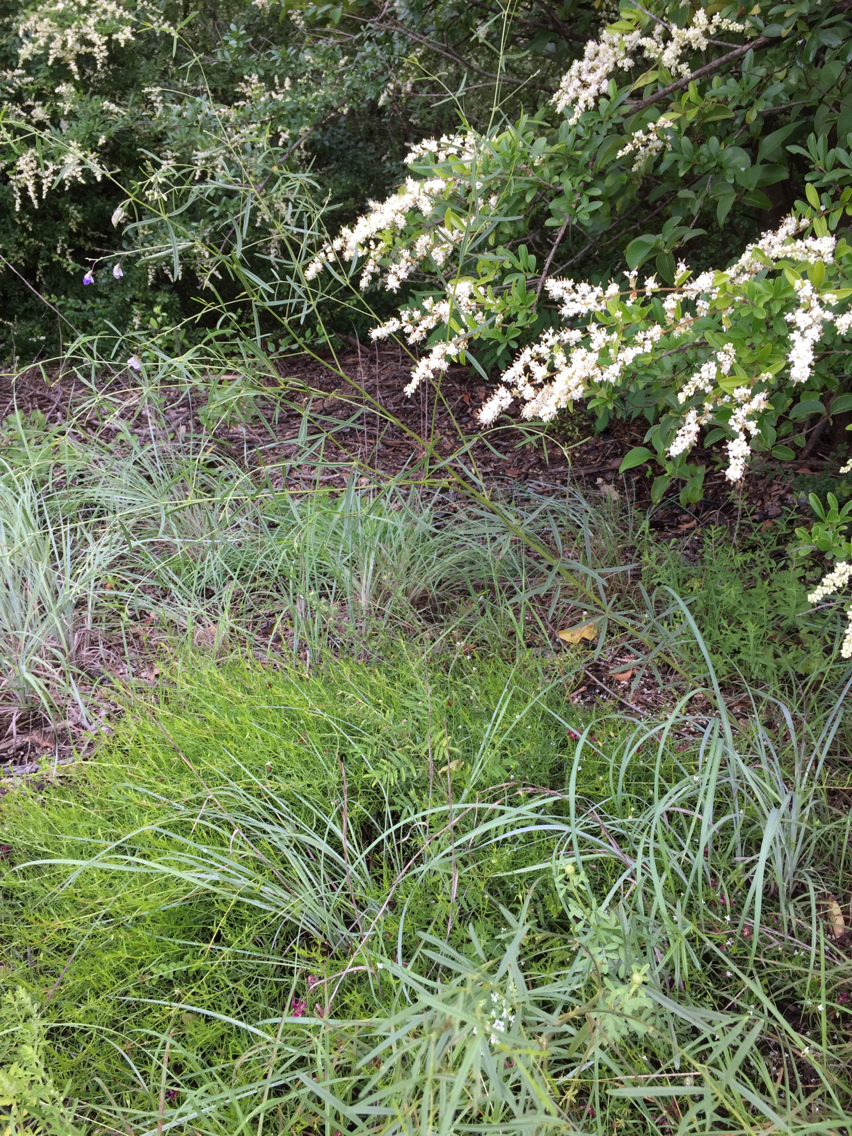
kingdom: Plantae
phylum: Tracheophyta
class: Magnoliopsida
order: Fabales
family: Fabaceae
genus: Pediomelum
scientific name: Pediomelum linearifolium
